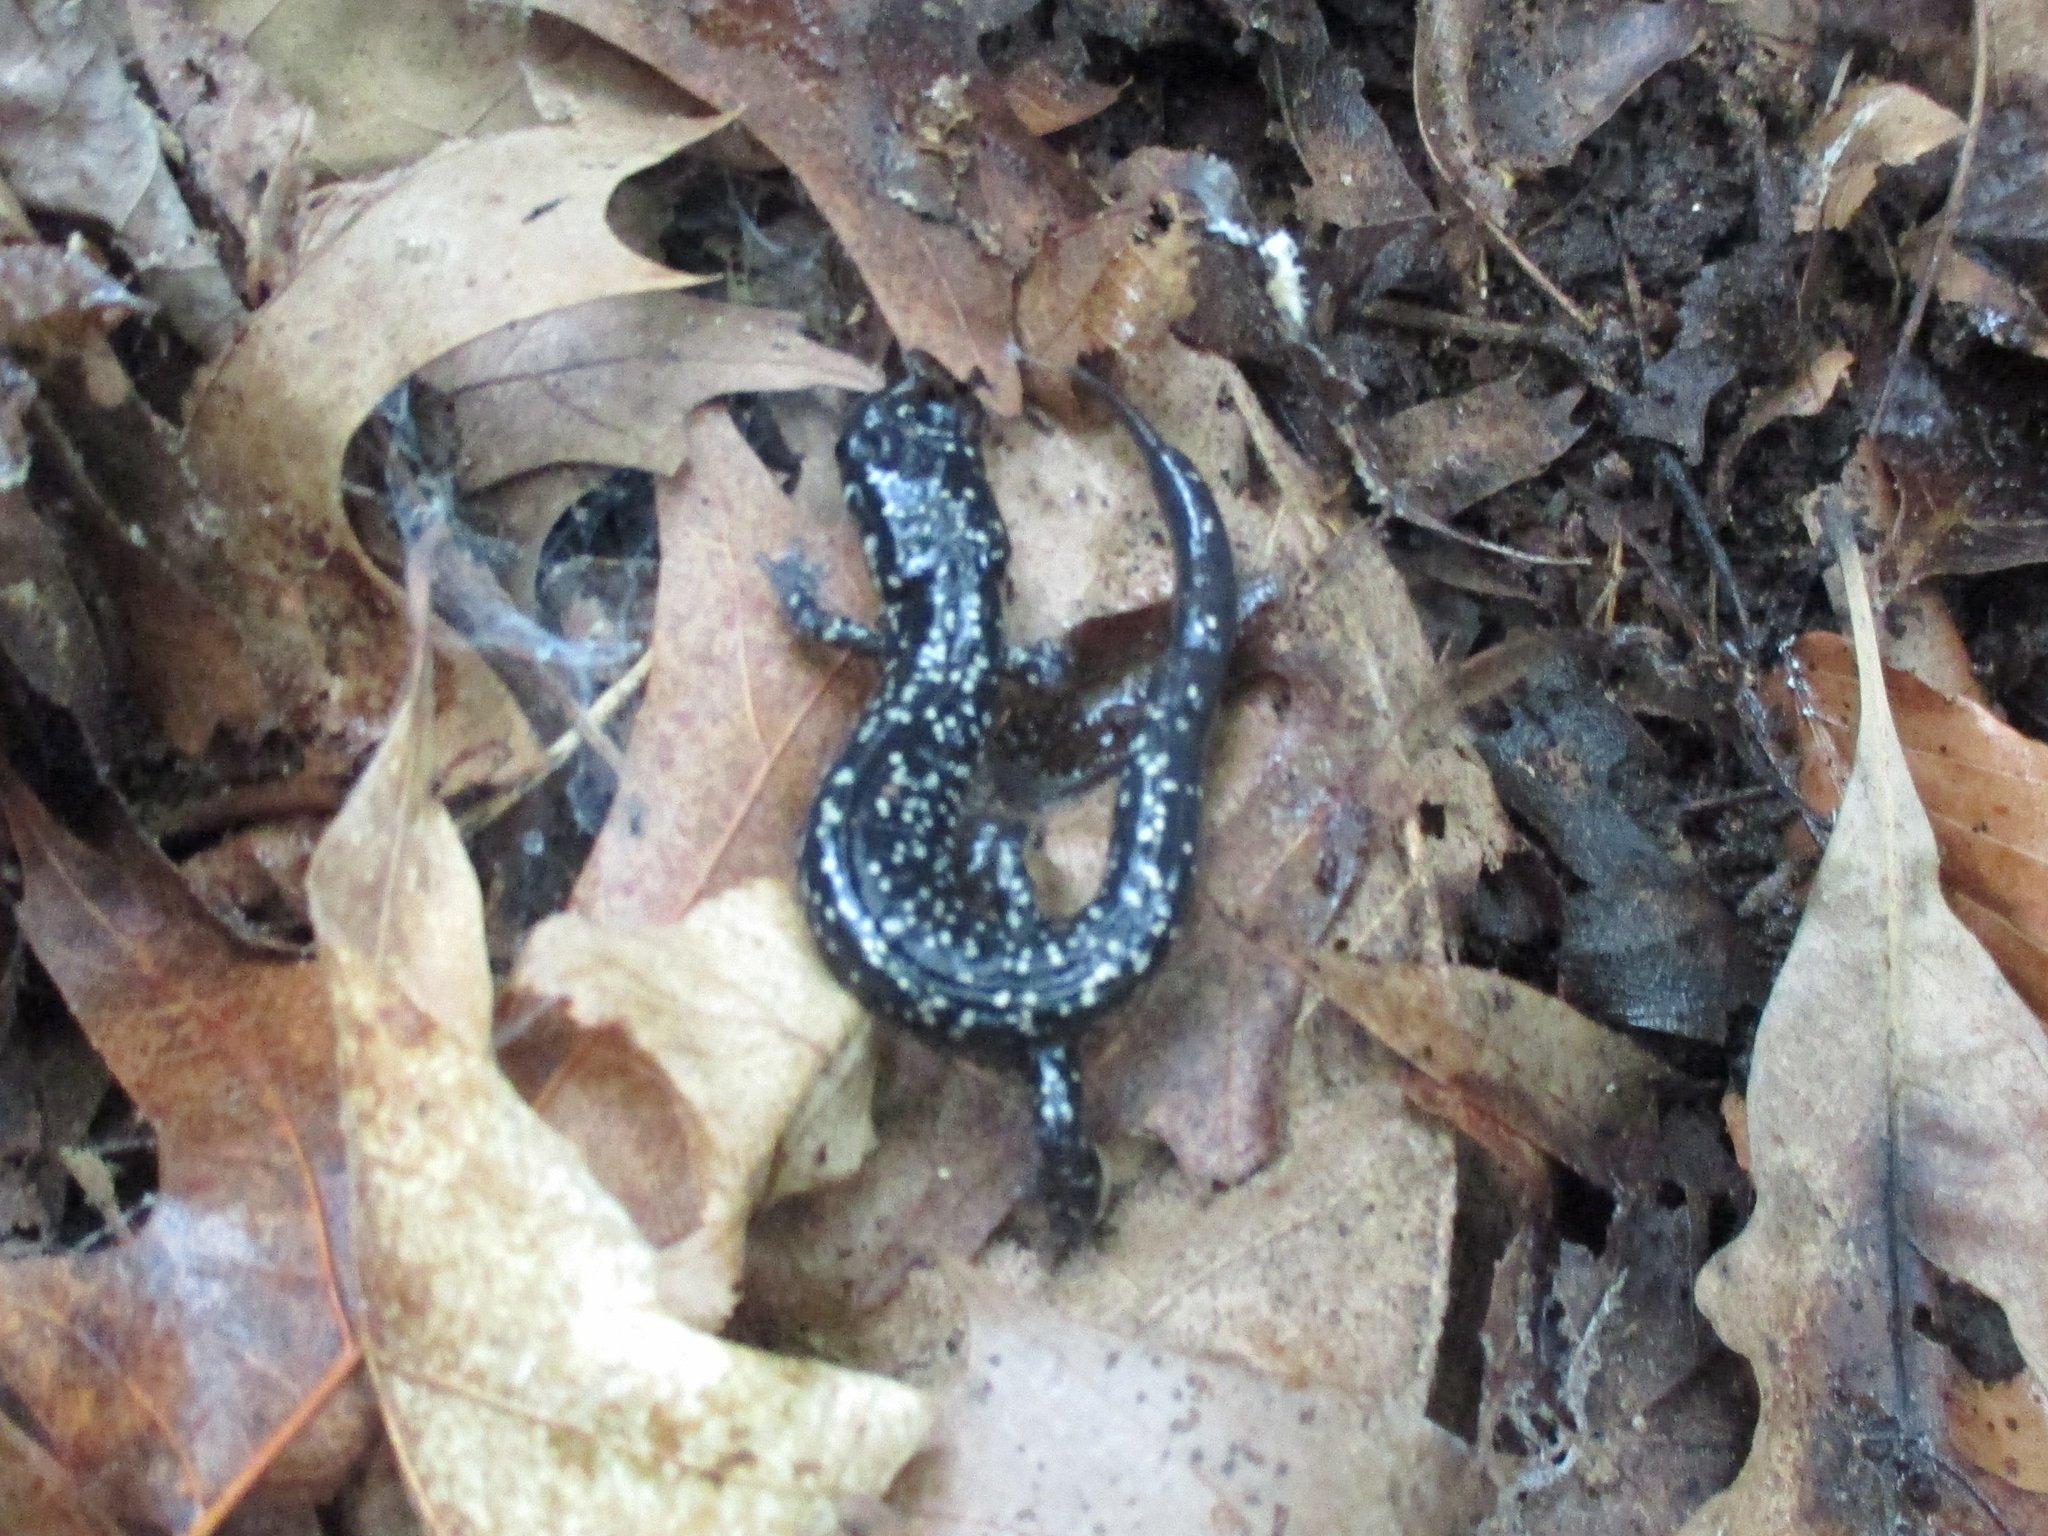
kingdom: Animalia
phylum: Chordata
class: Amphibia
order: Caudata
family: Plethodontidae
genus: Plethodon
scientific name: Plethodon glutinosus
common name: Northern slimy salamander
